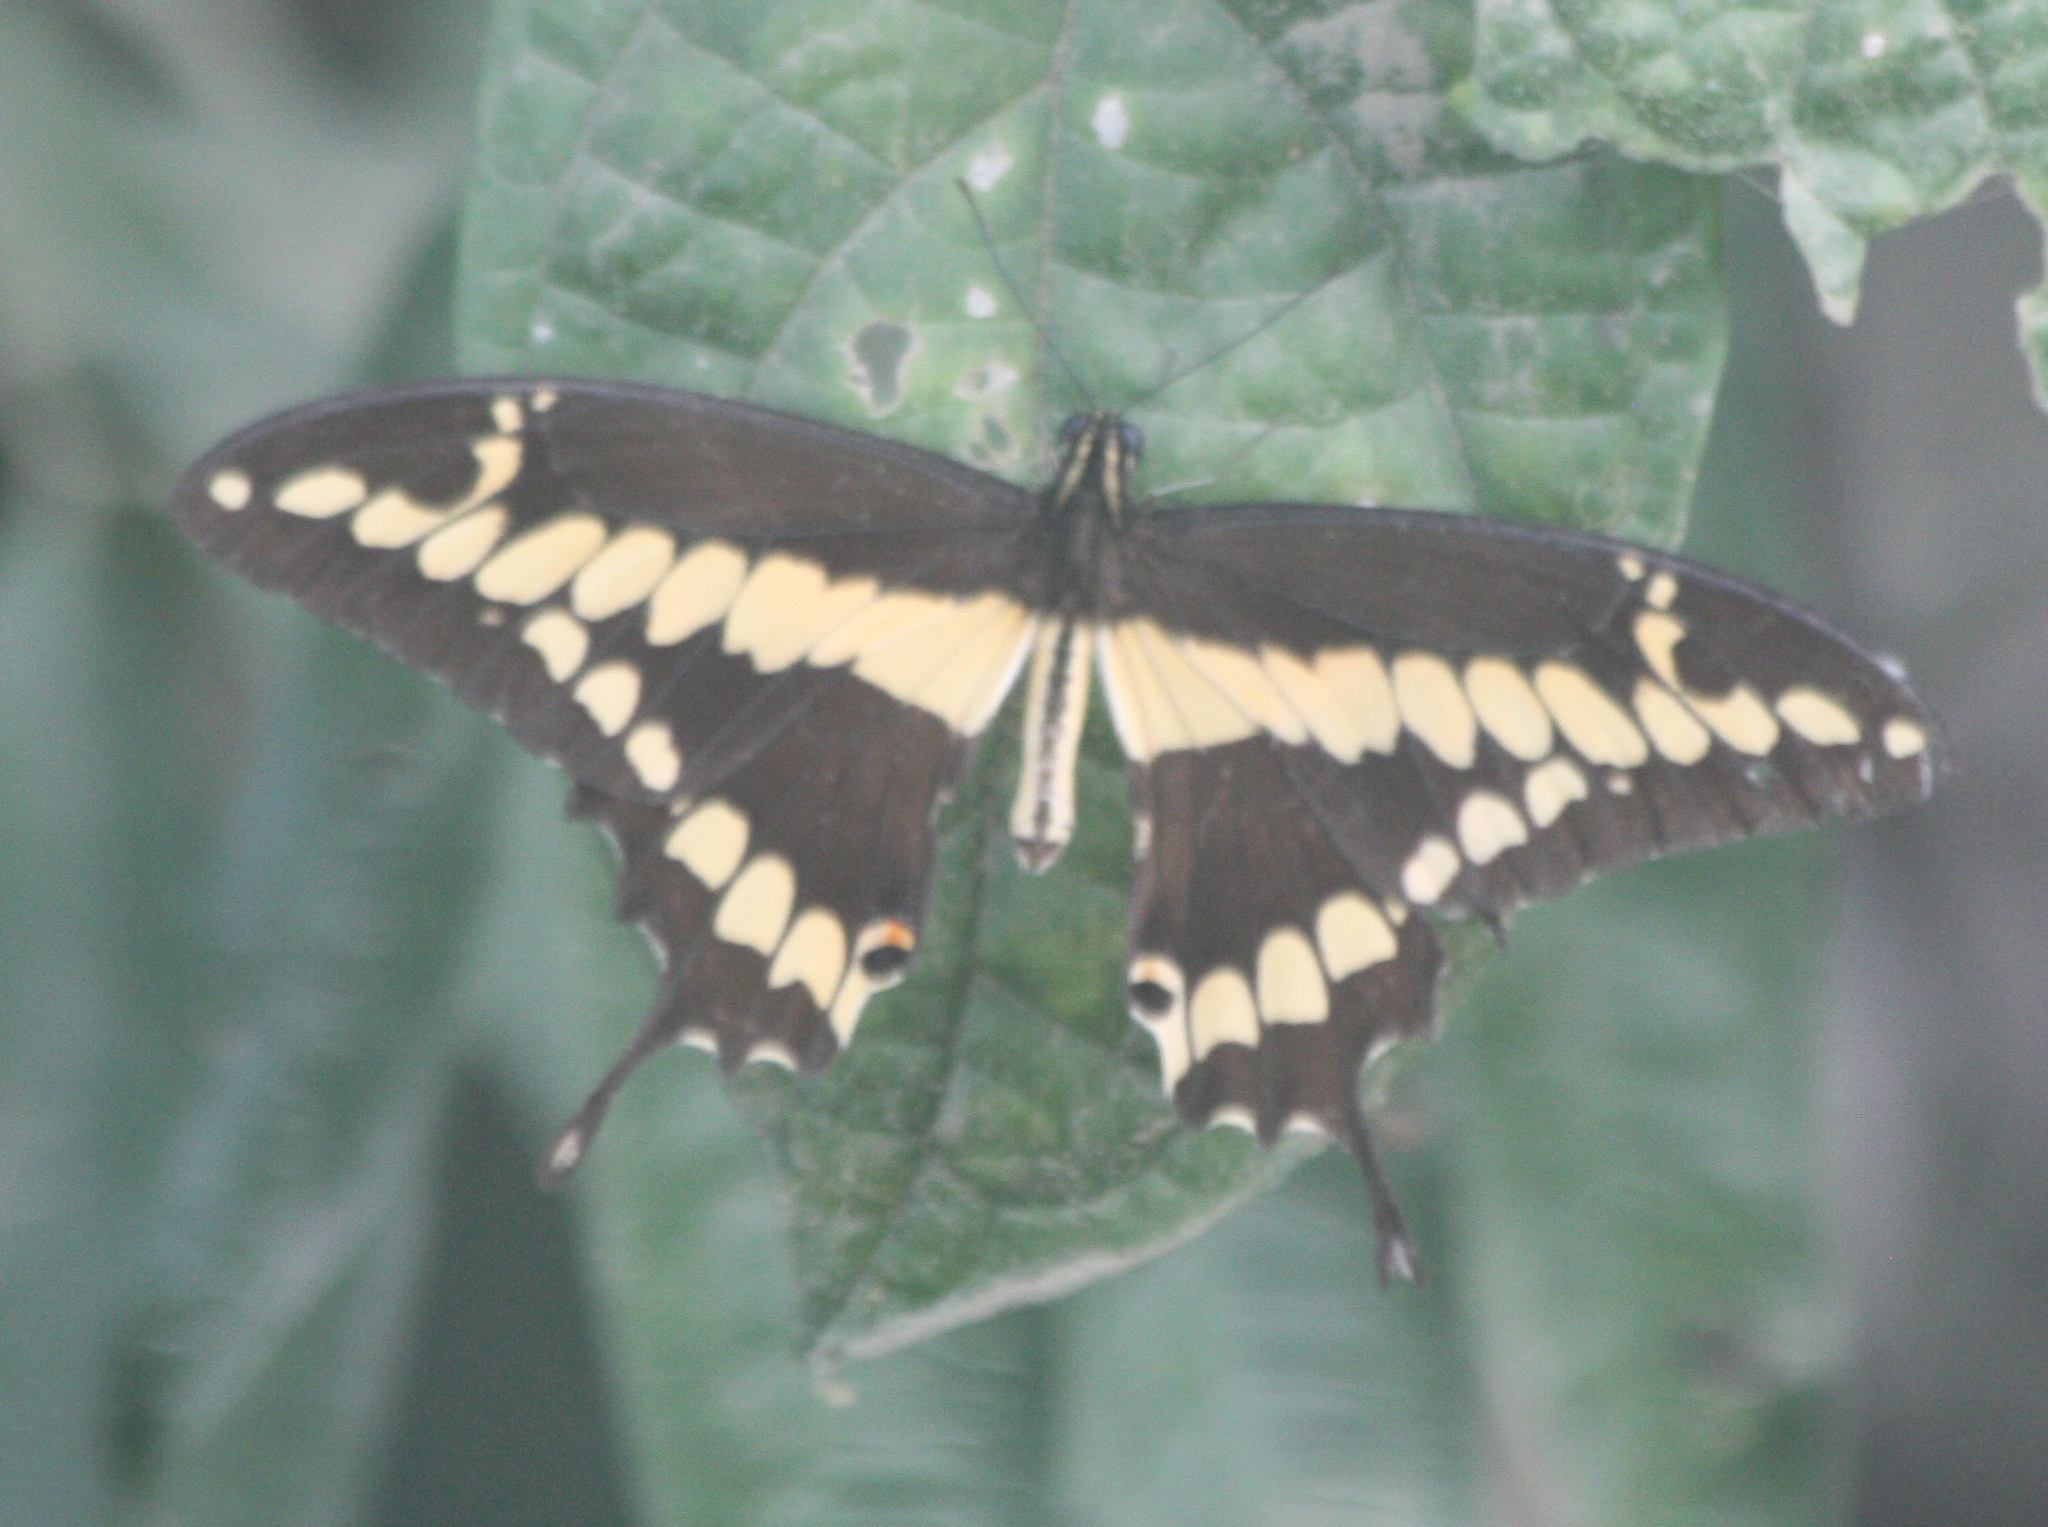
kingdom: Animalia
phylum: Arthropoda
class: Insecta
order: Lepidoptera
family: Papilionidae
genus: Papilio
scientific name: Papilio rumiko
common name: Western giant swallowtail
